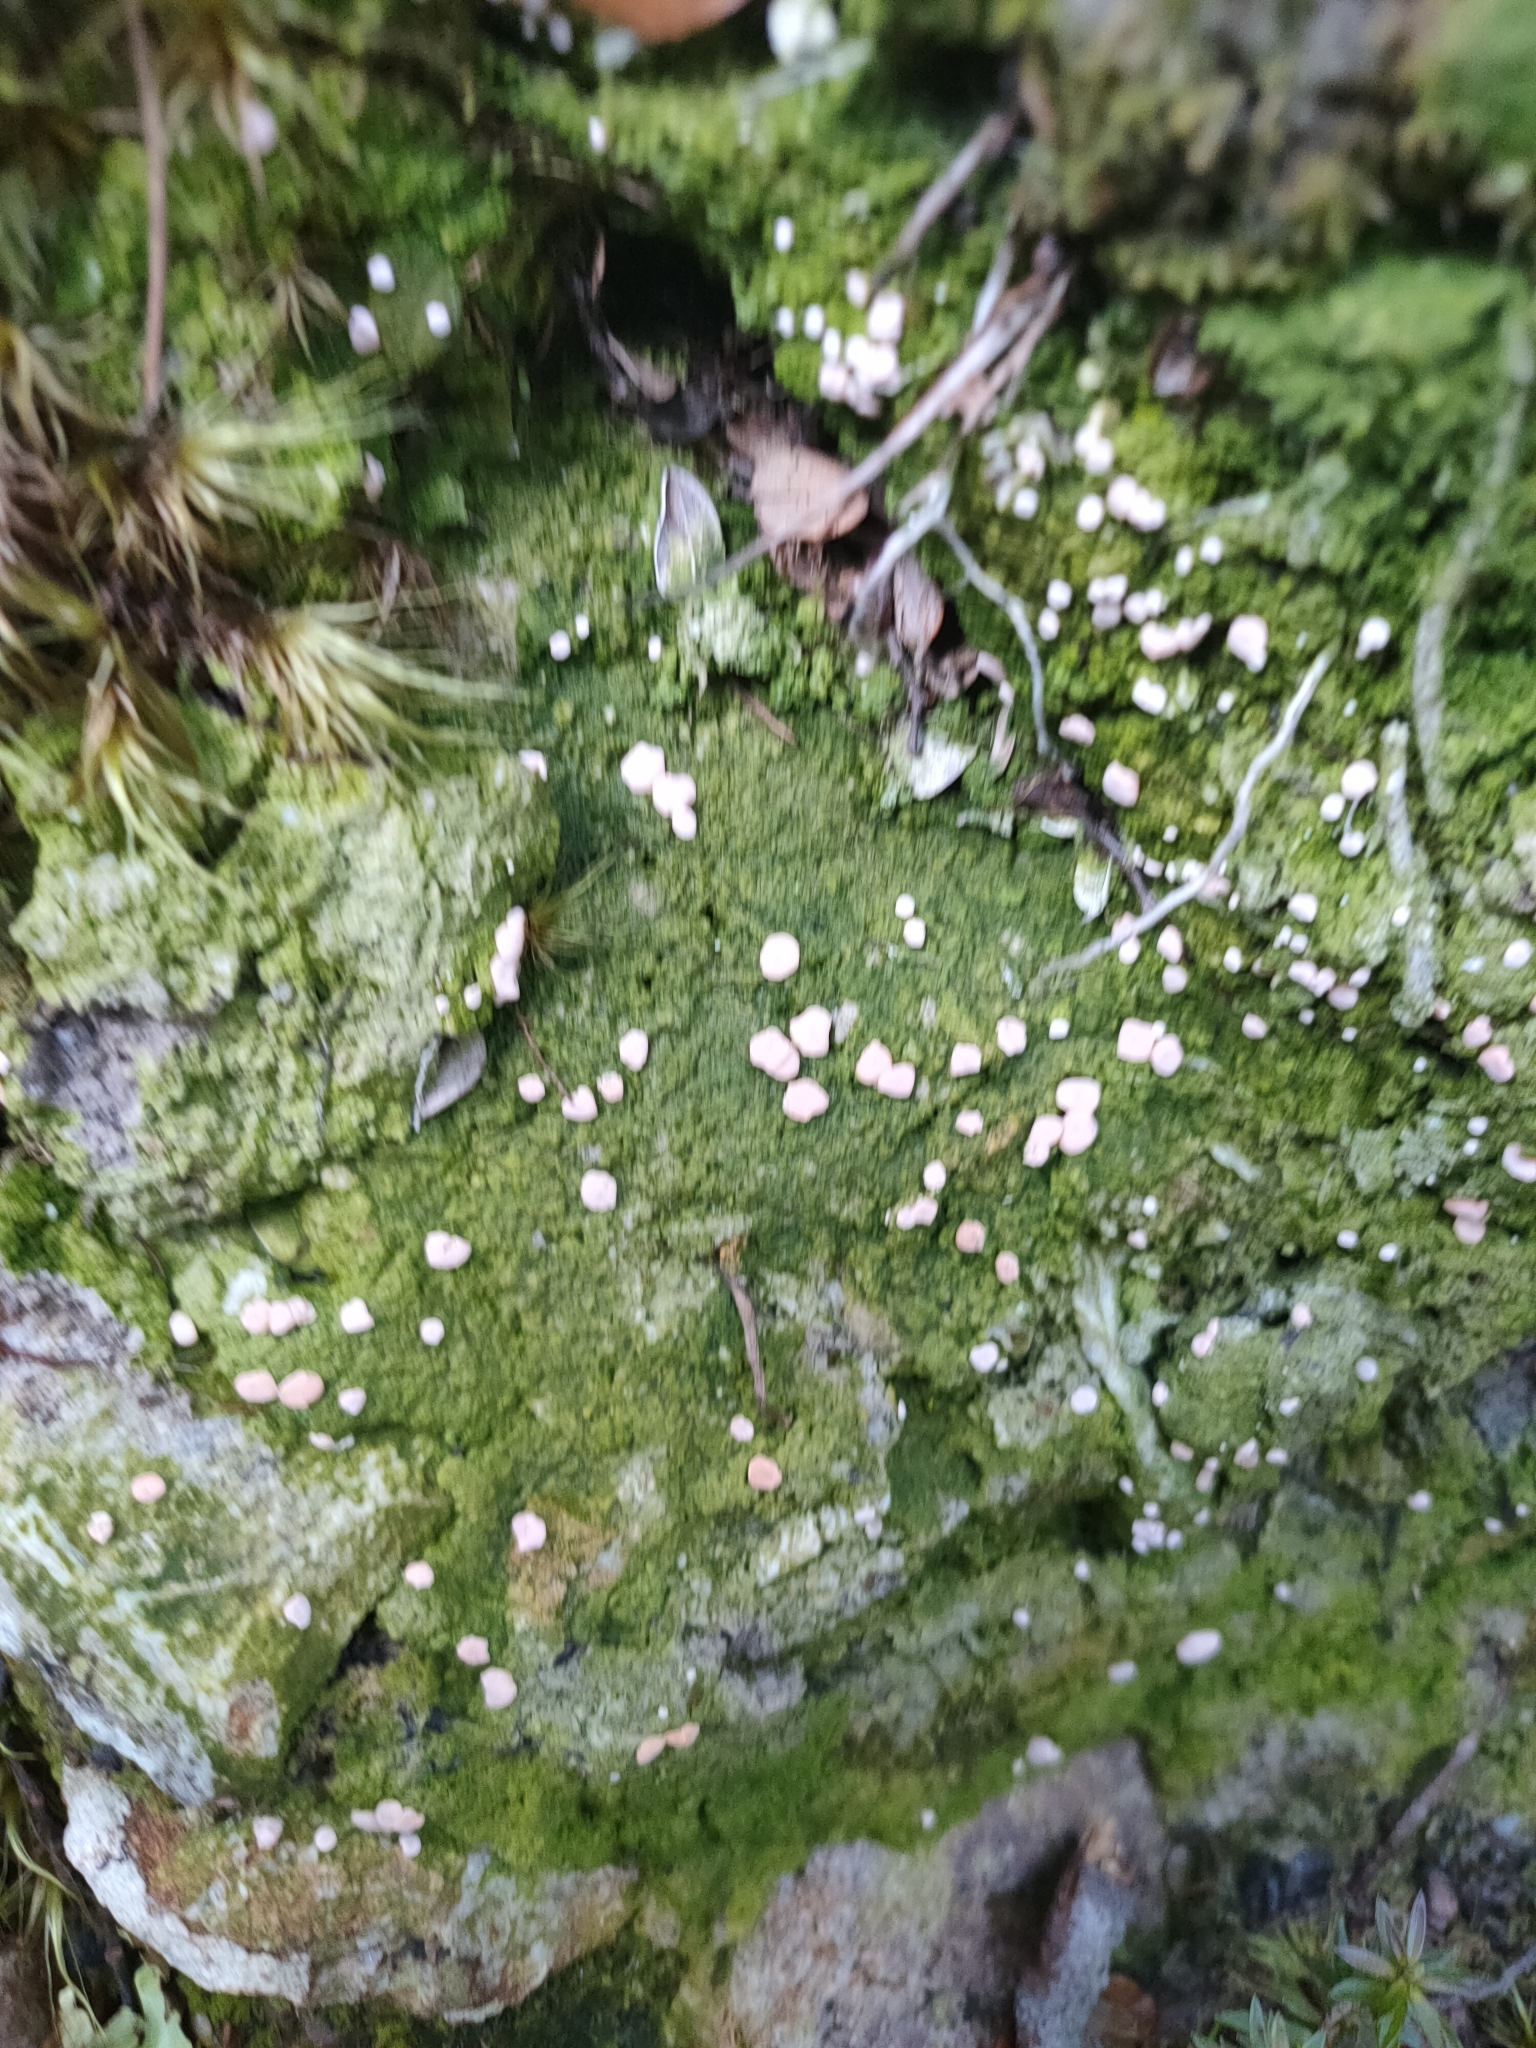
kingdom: Fungi
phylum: Ascomycota
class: Lecanoromycetes
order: Pertusariales
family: Icmadophilaceae
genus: Dibaeis
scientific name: Dibaeis absoluta
